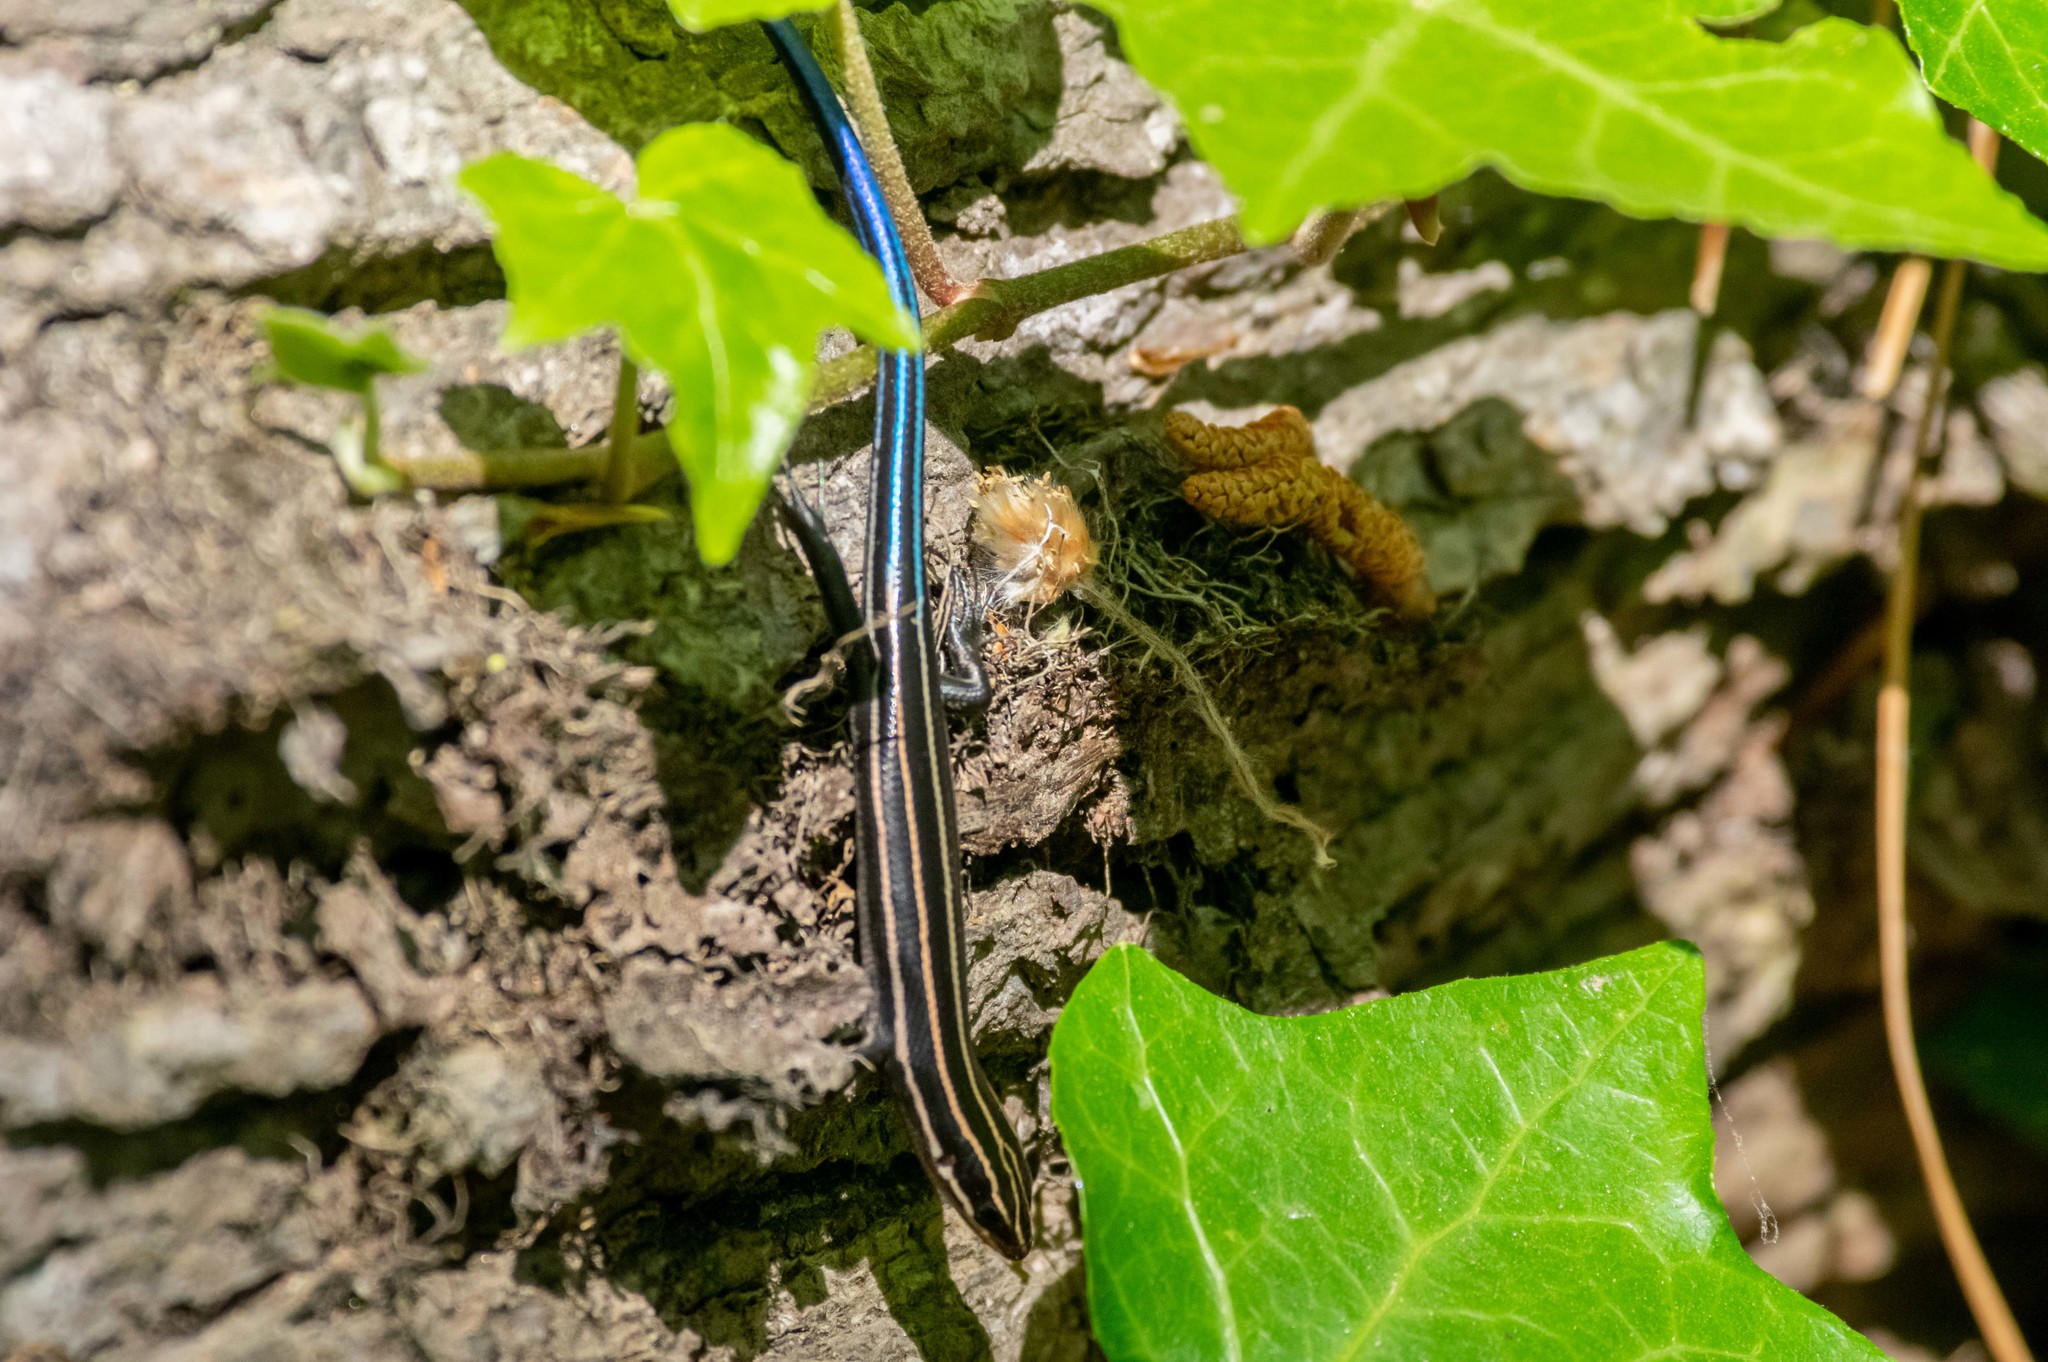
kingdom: Animalia
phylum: Chordata
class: Squamata
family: Scincidae
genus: Plestiodon
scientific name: Plestiodon fasciatus
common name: Five-lined skink
